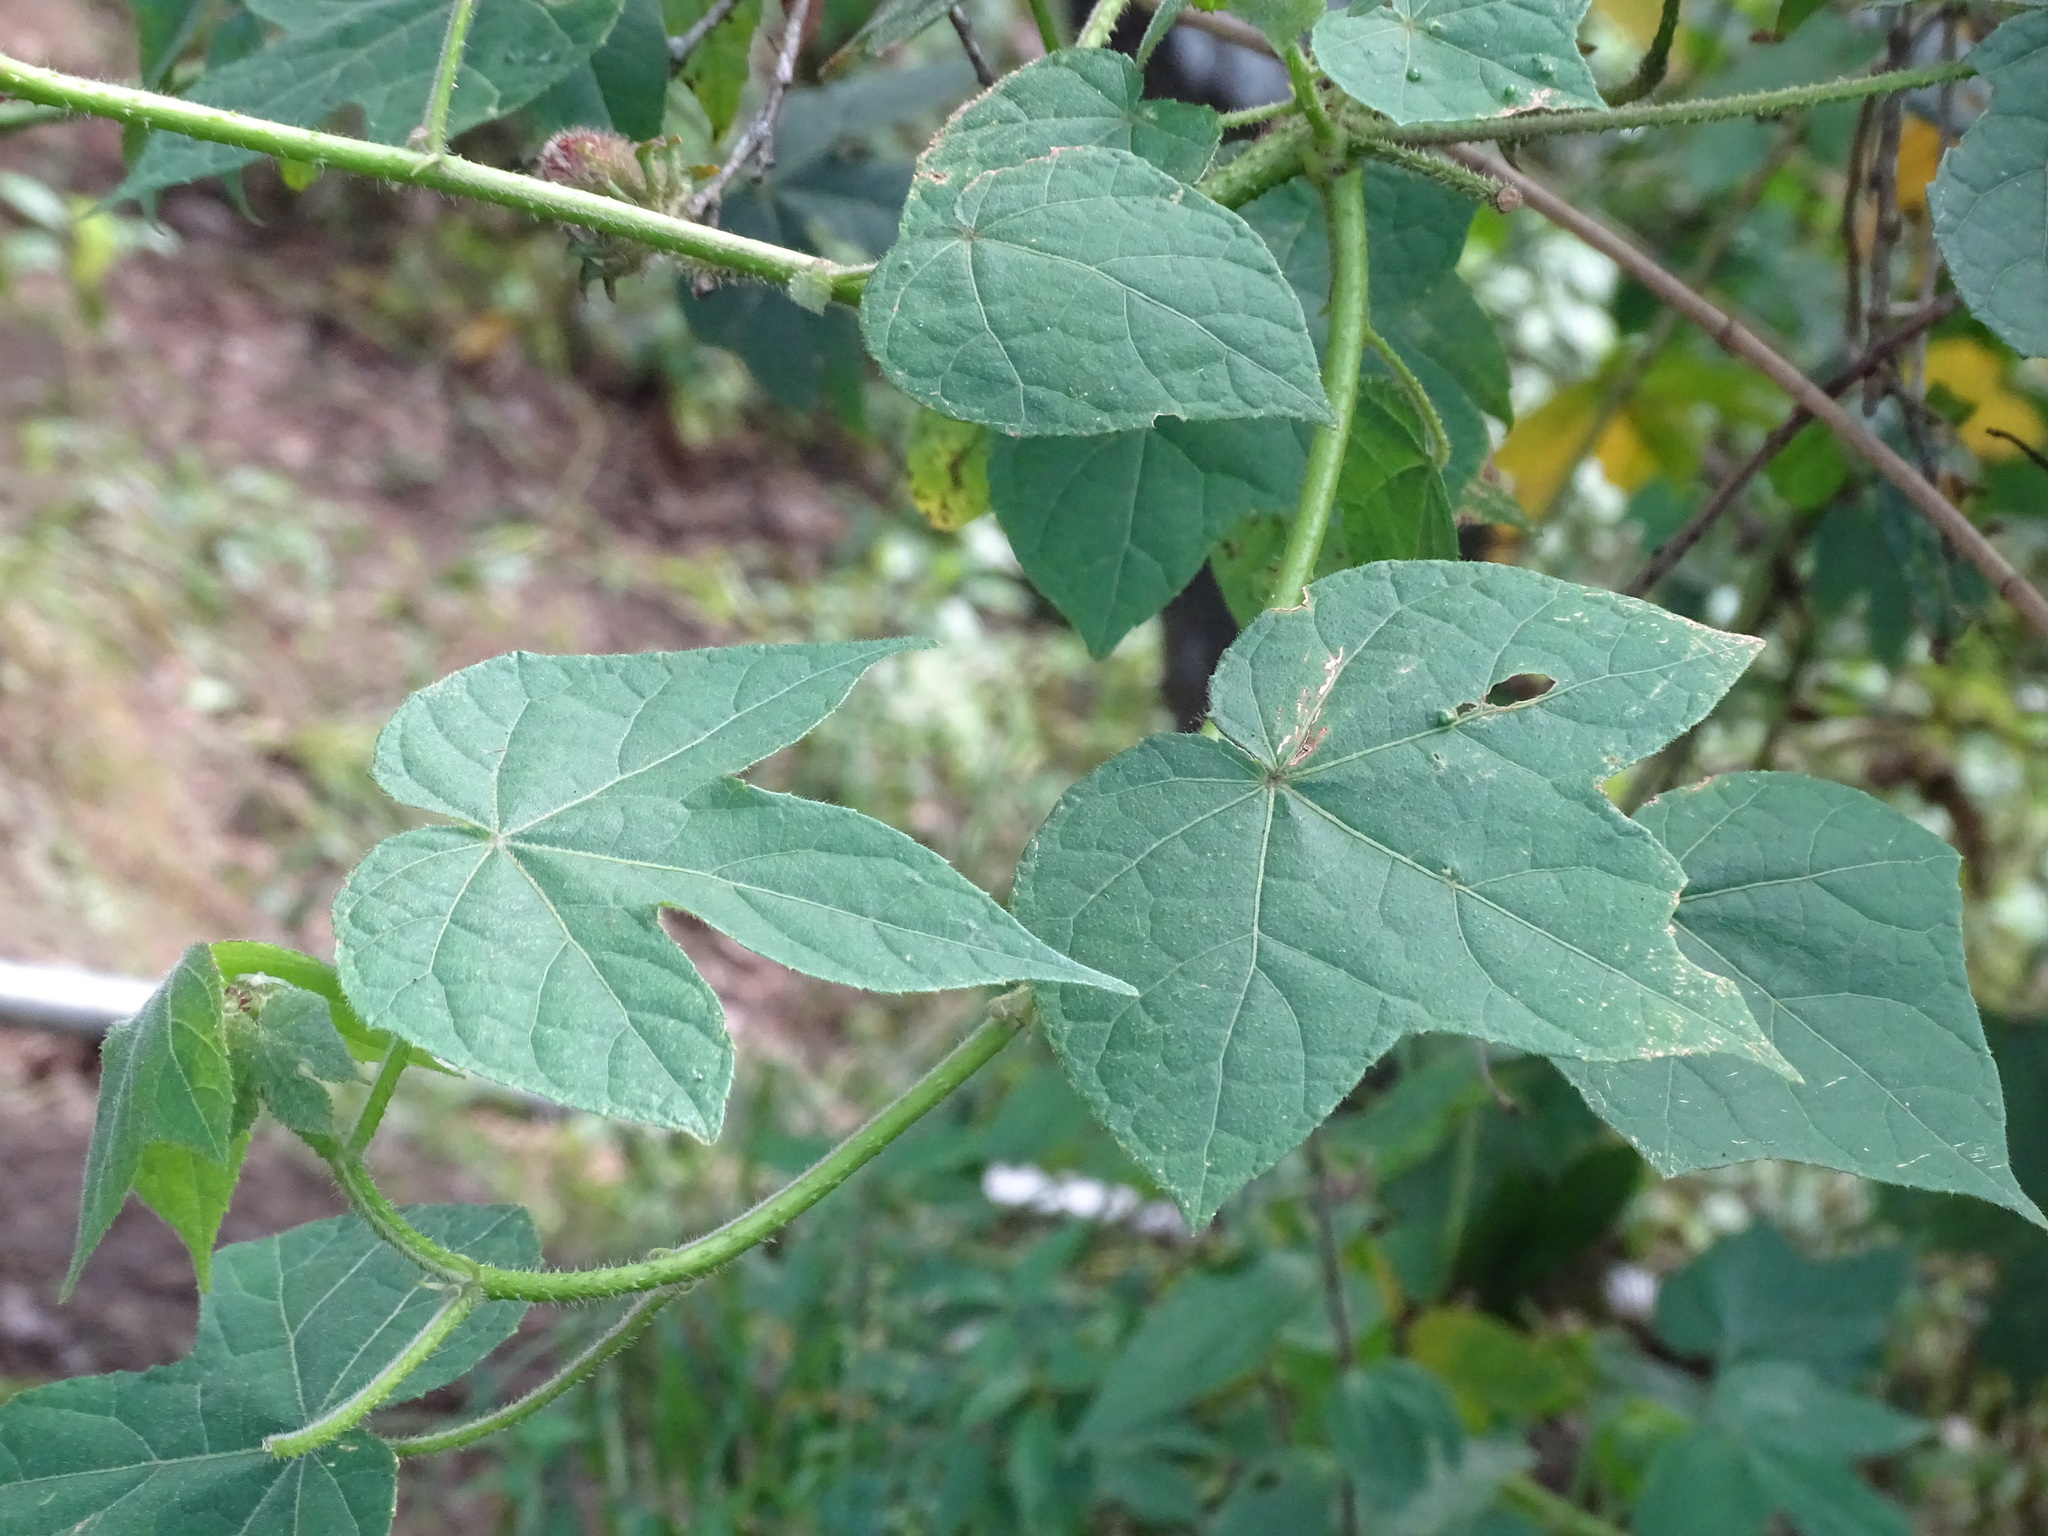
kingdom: Plantae
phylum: Tracheophyta
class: Magnoliopsida
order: Malvales
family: Malvaceae
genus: Hibiscus
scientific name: Hibiscus uncinellus
